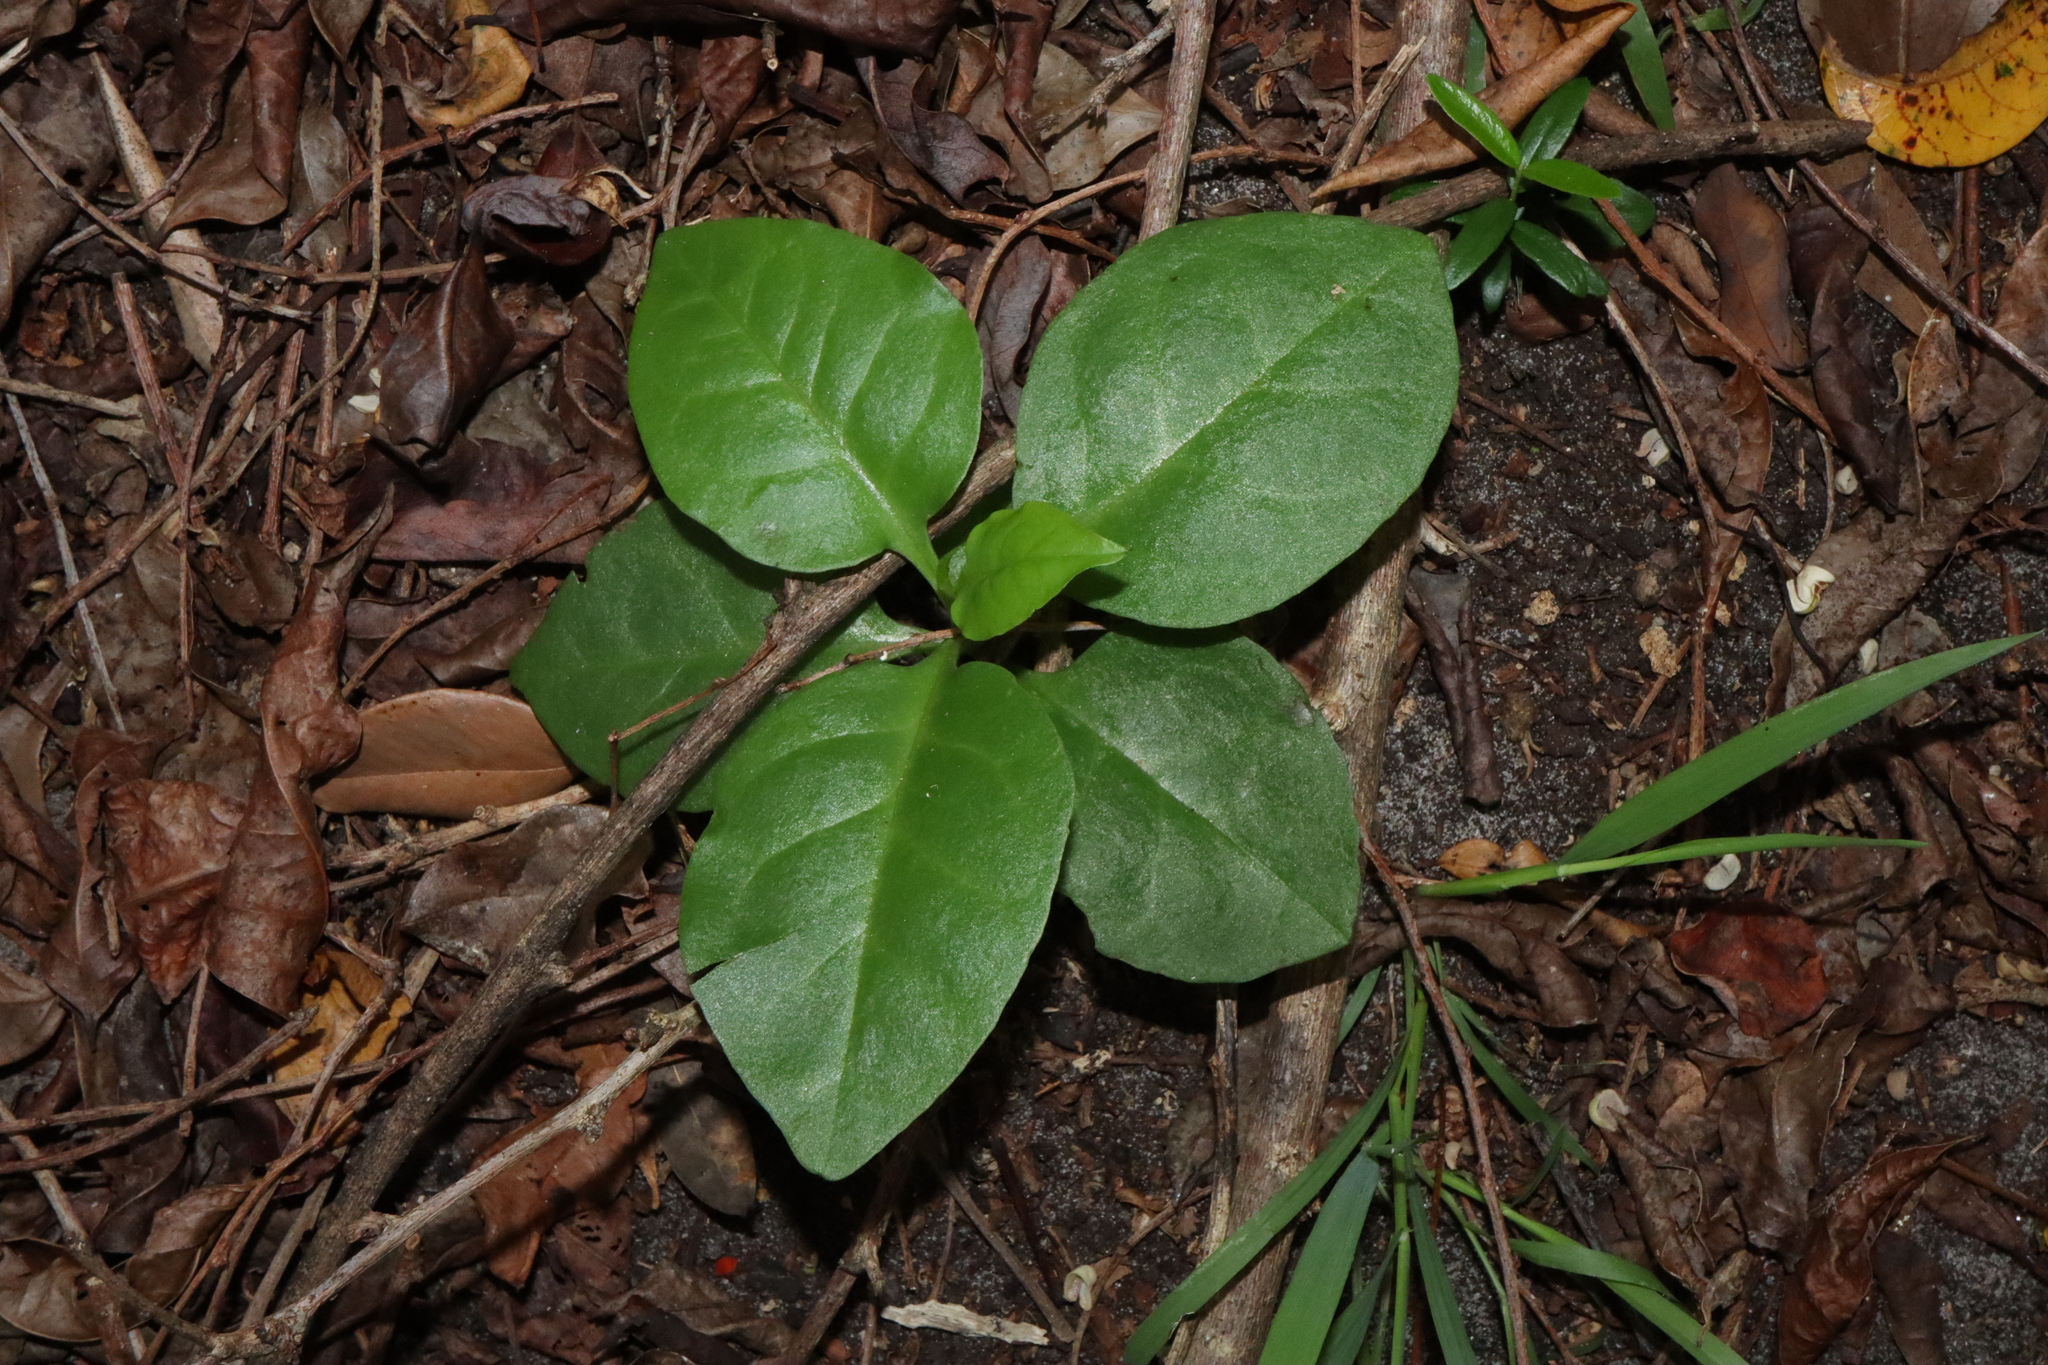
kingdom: Plantae
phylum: Tracheophyta
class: Magnoliopsida
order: Caryophyllales
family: Basellaceae
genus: Anredera
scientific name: Anredera cordifolia
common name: Heartleaf madeiravine
